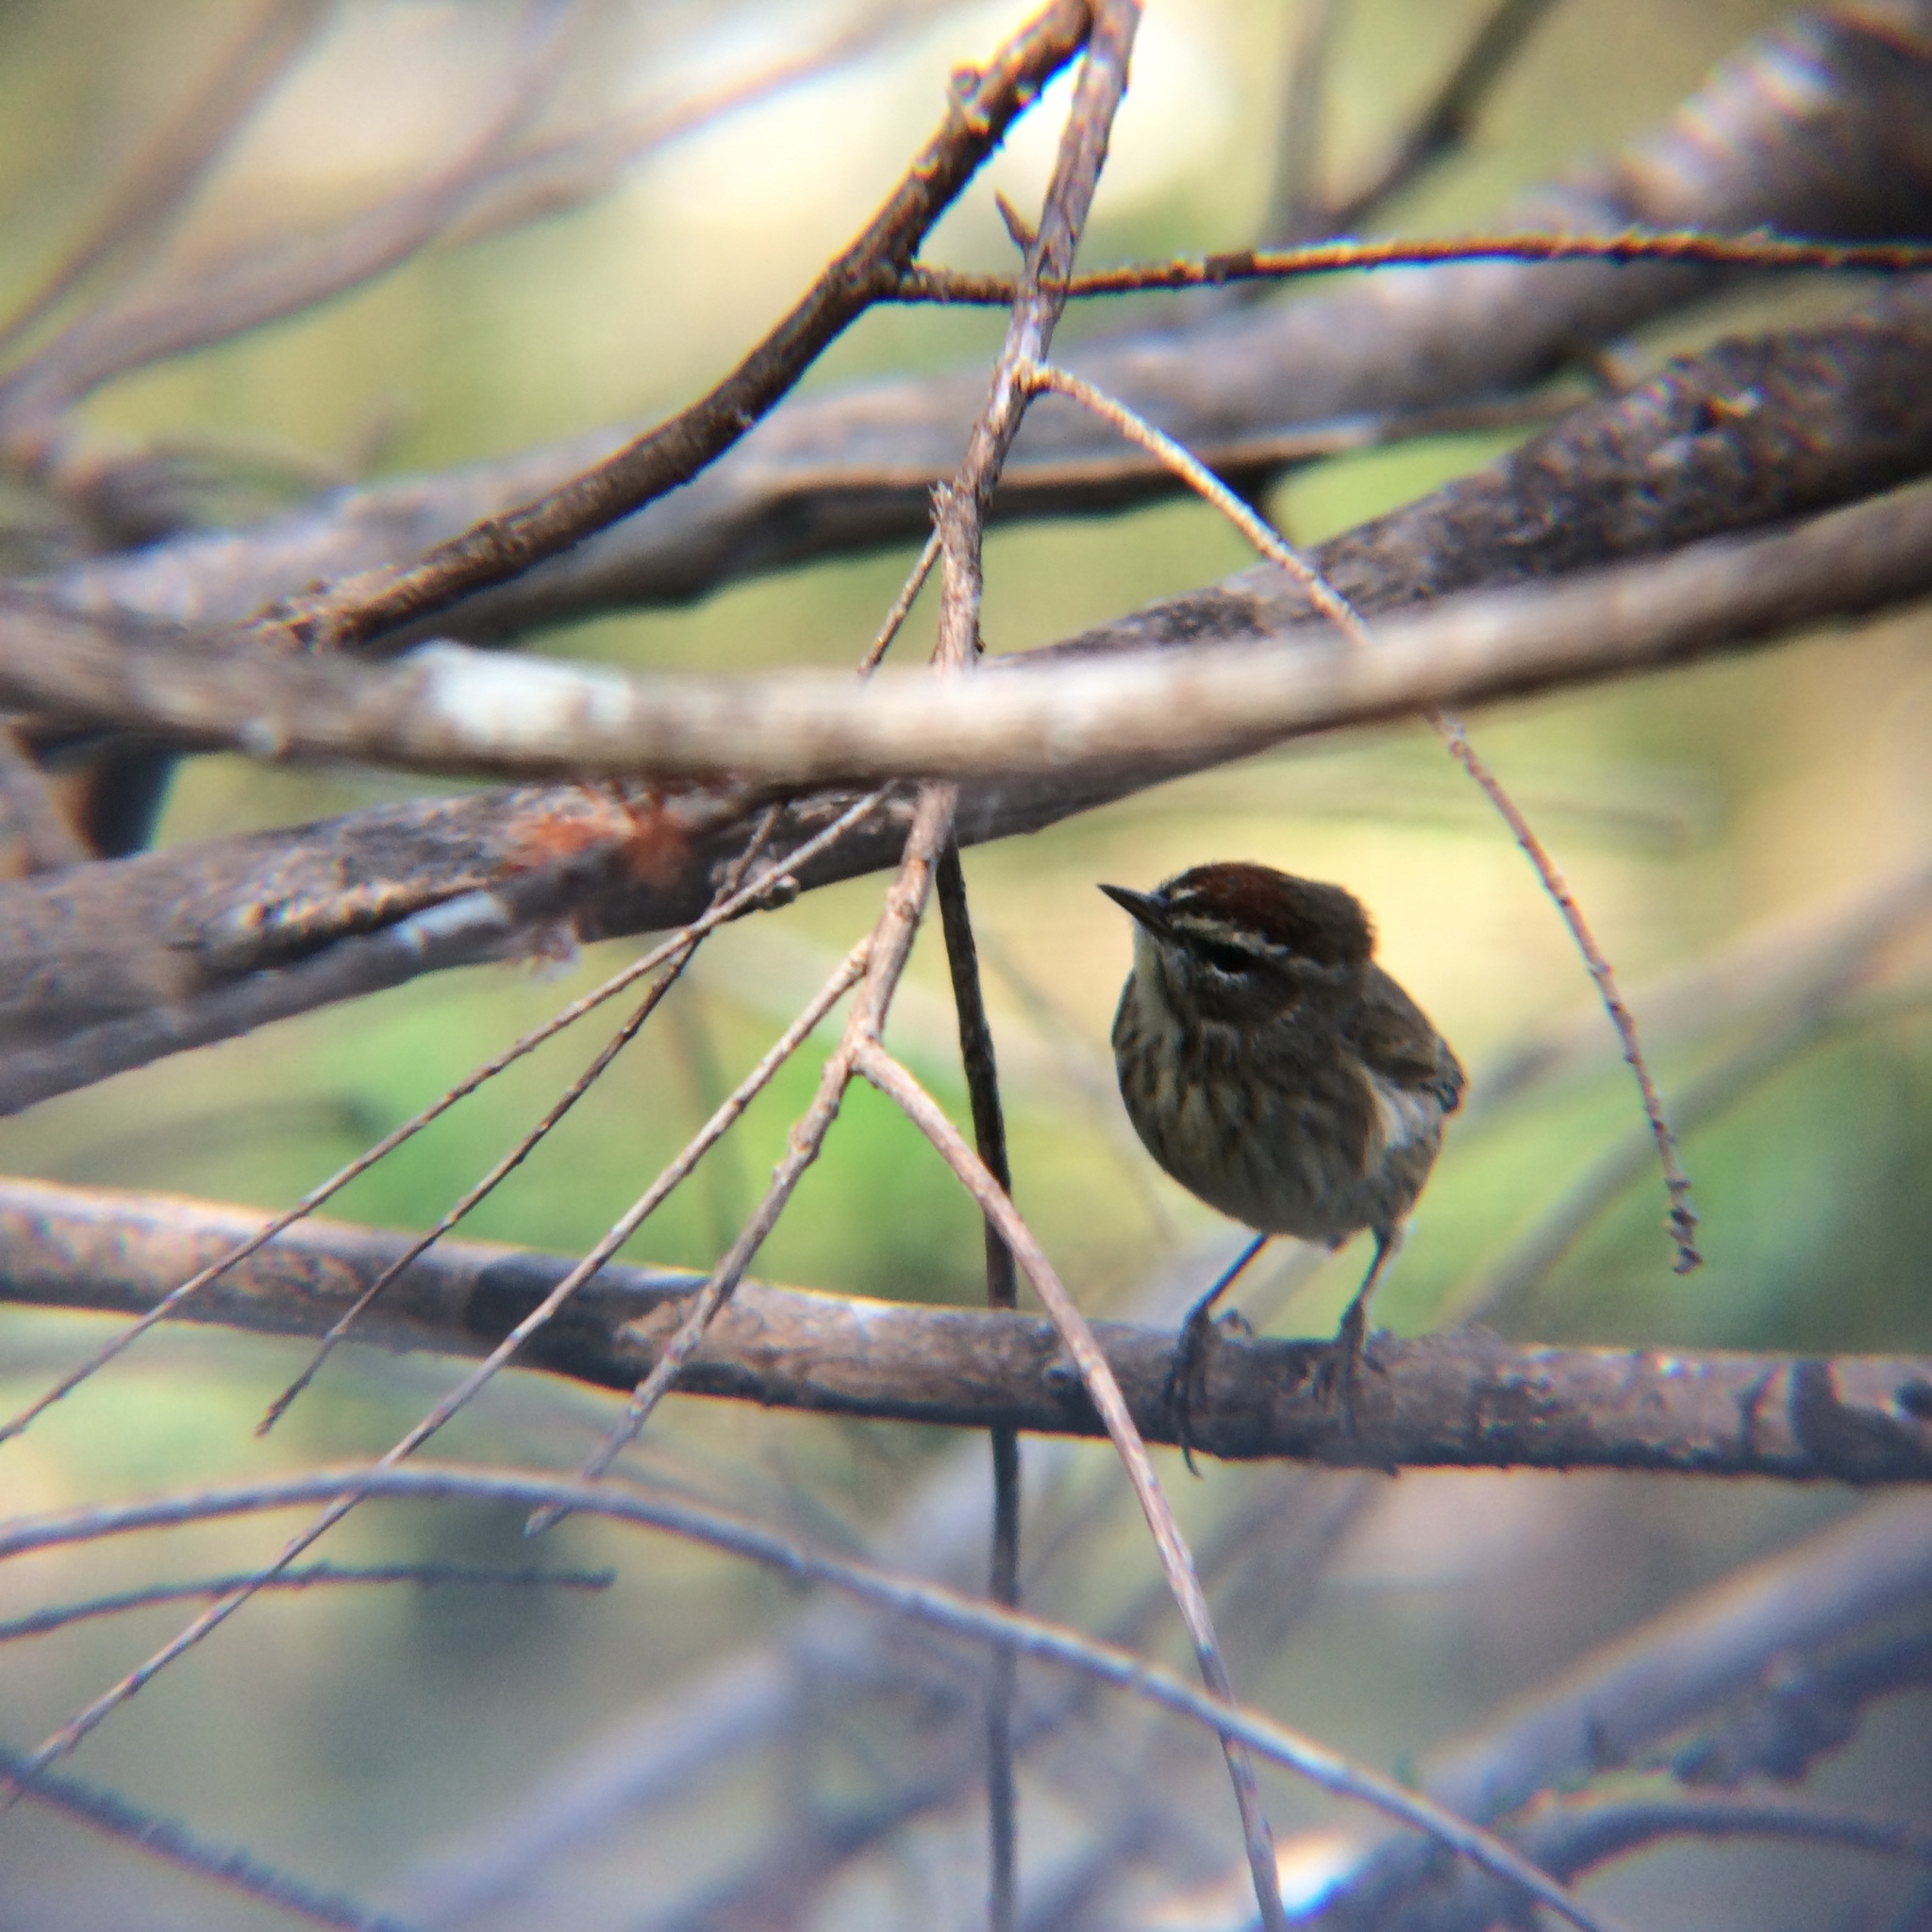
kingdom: Animalia
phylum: Chordata
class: Aves
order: Passeriformes
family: Parulidae
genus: Setophaga
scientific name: Setophaga palmarum
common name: Palm warbler
